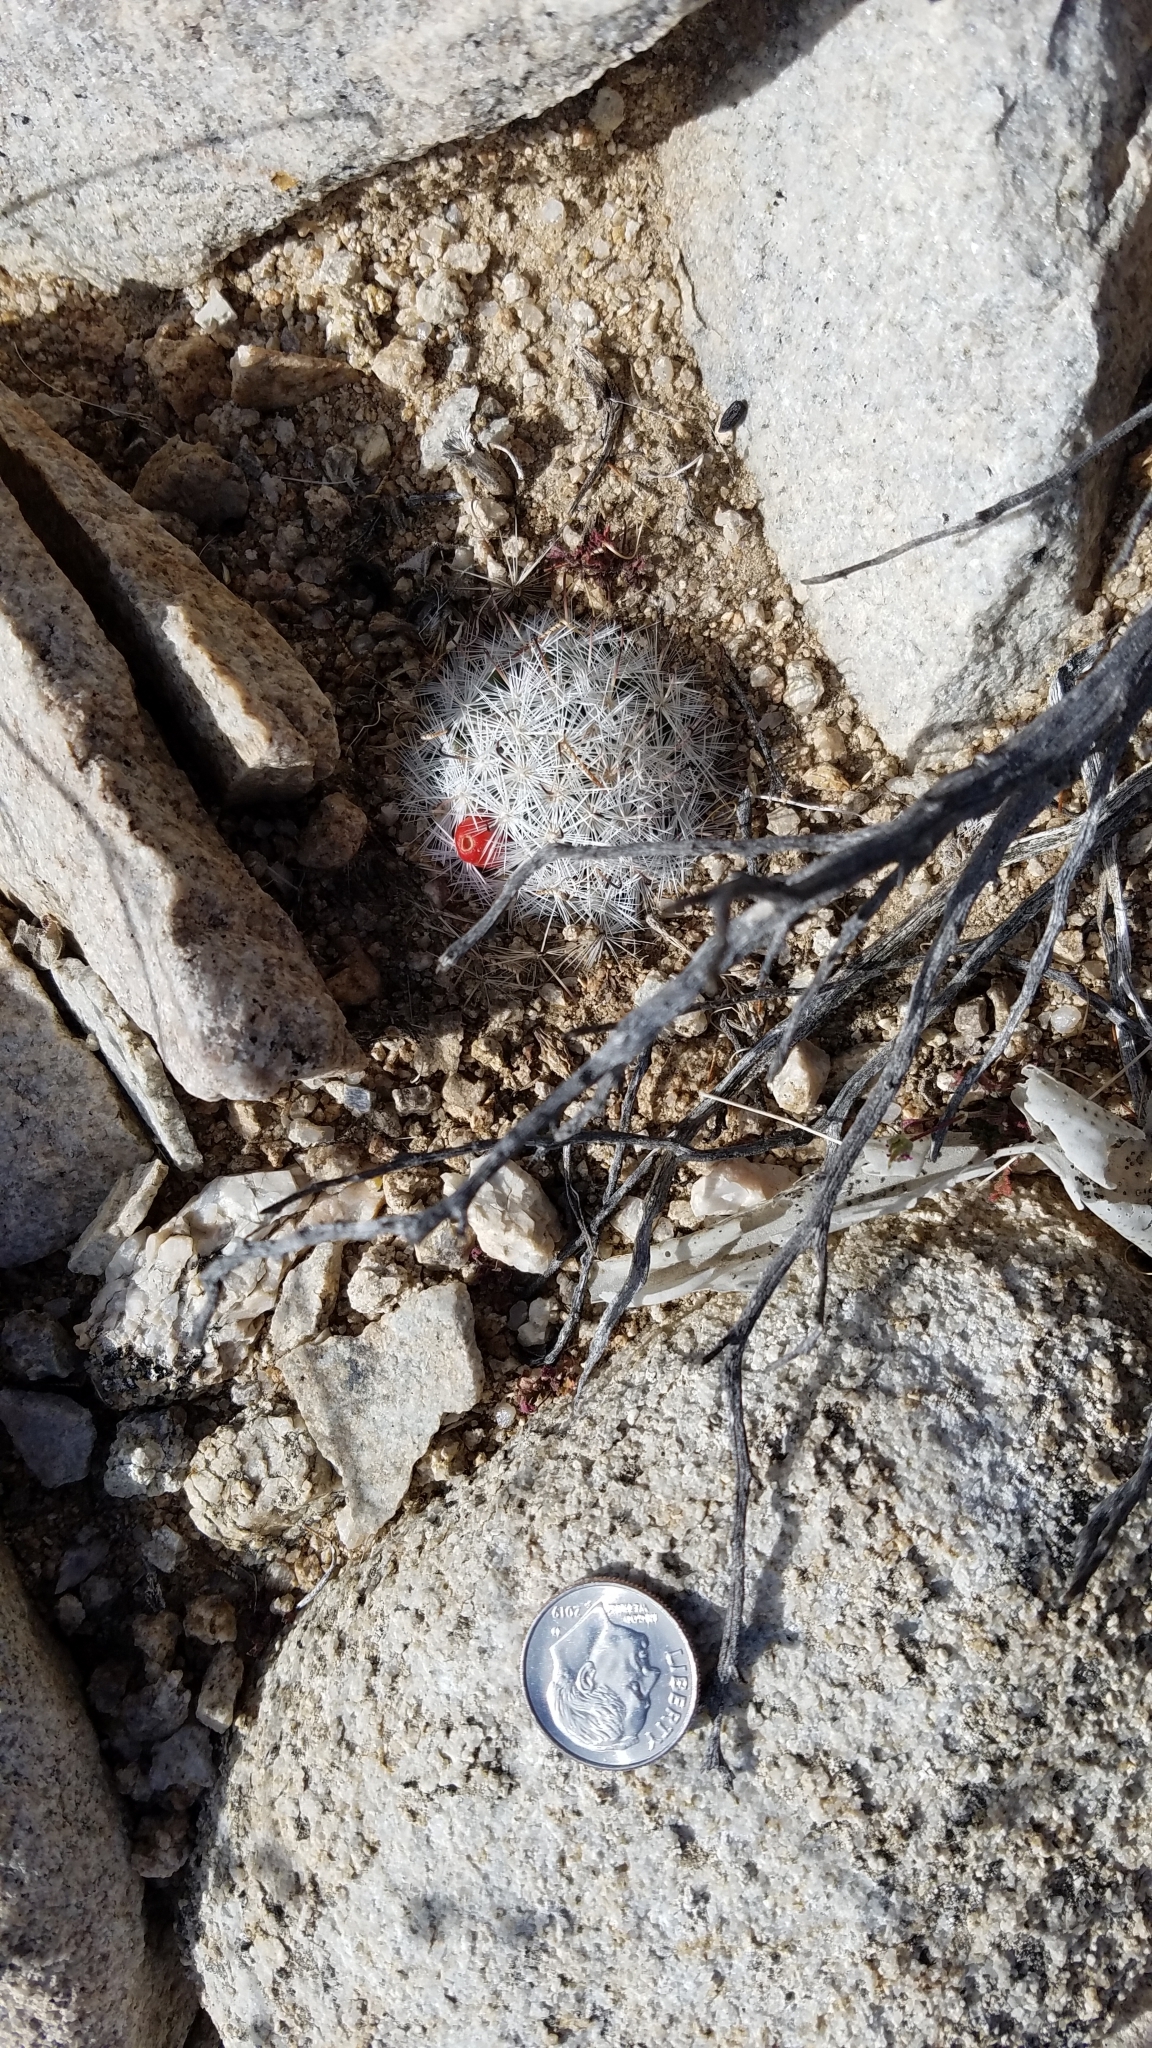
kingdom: Plantae
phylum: Tracheophyta
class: Magnoliopsida
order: Caryophyllales
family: Cactaceae
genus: Cochemiea
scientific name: Cochemiea tetrancistra
